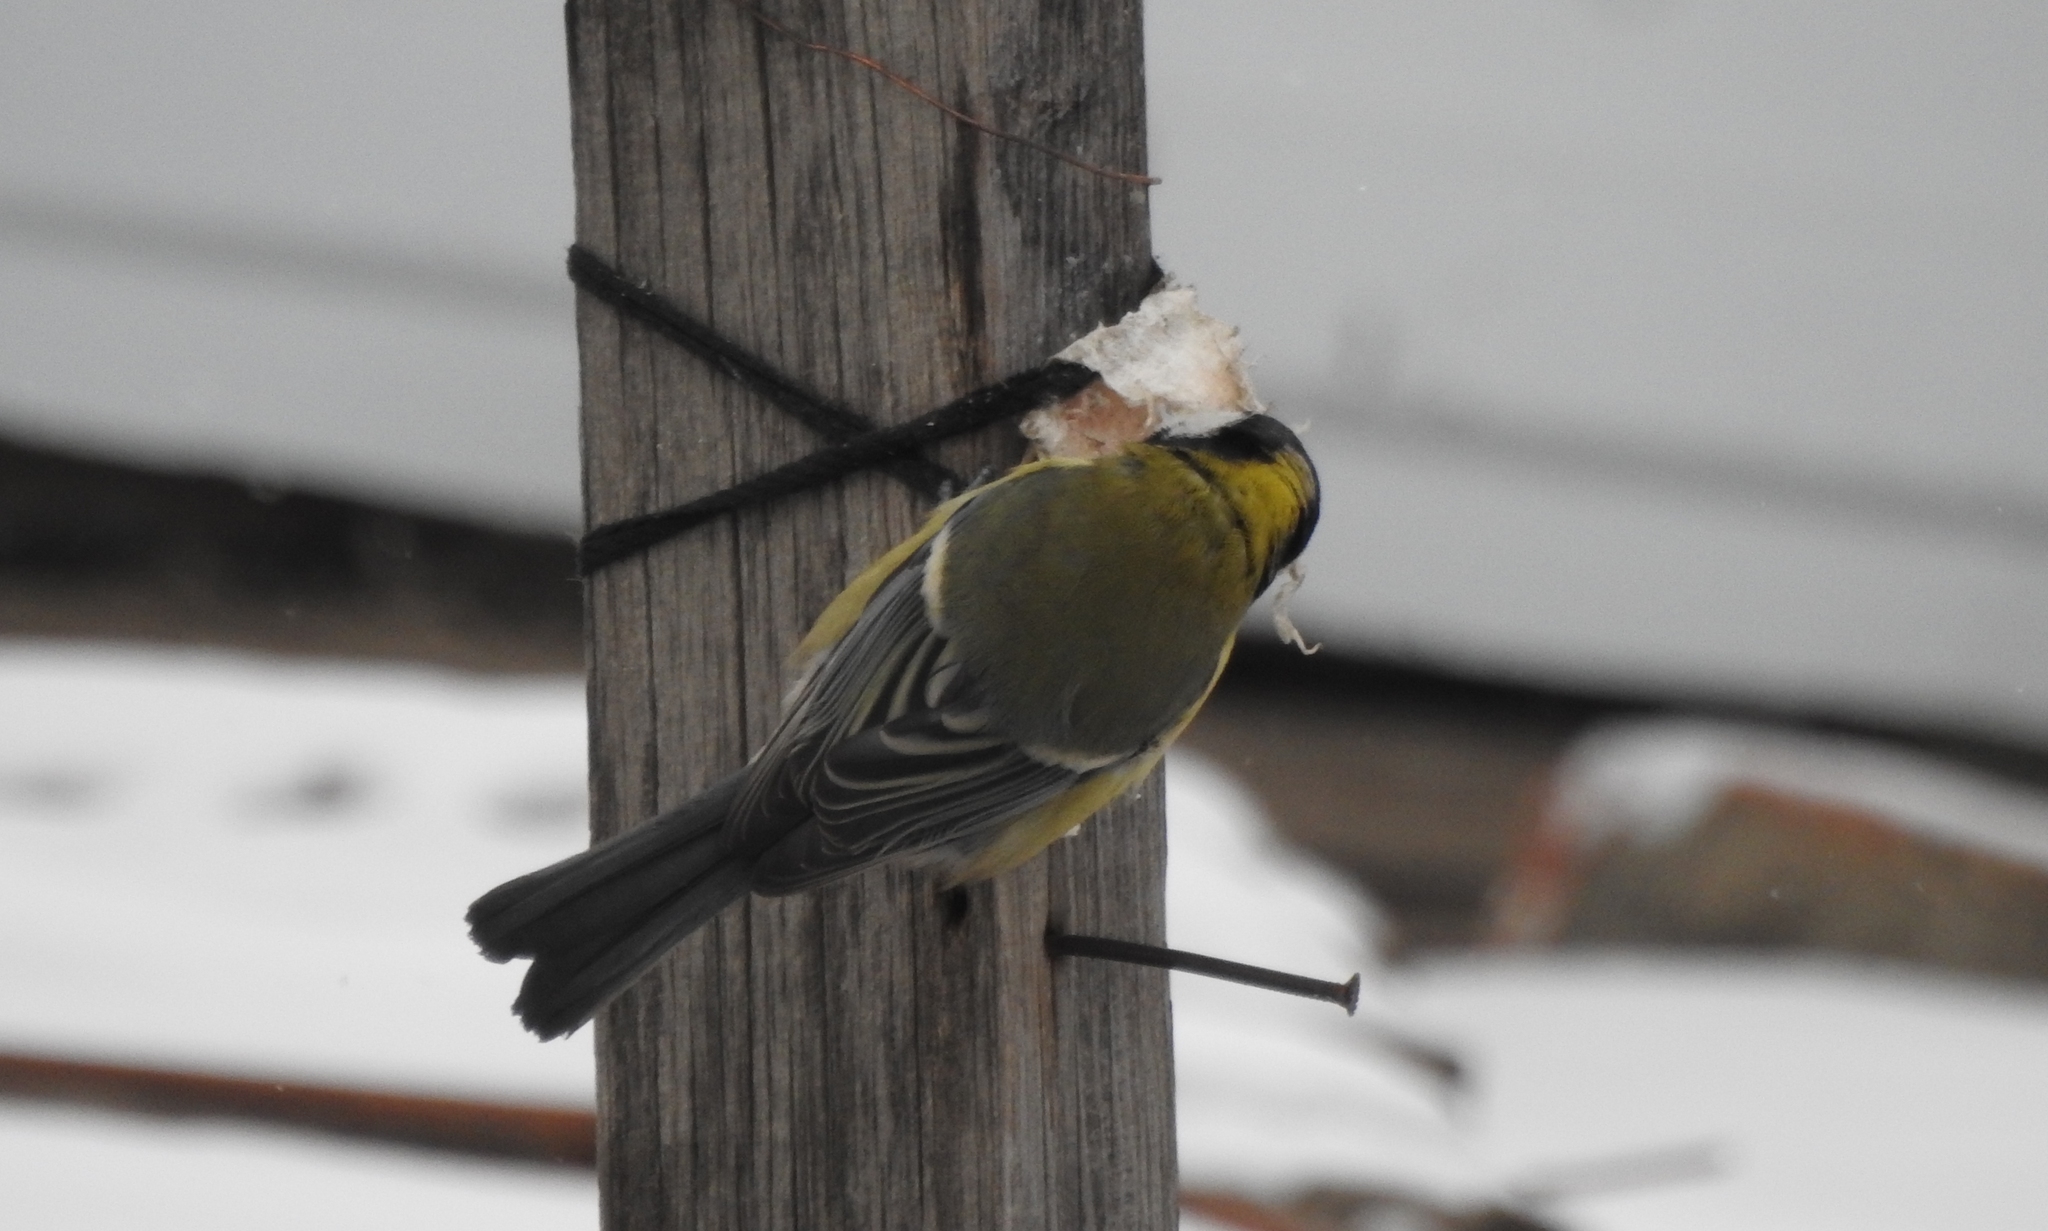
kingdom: Animalia
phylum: Chordata
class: Aves
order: Passeriformes
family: Paridae
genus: Parus
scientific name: Parus major
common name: Great tit
